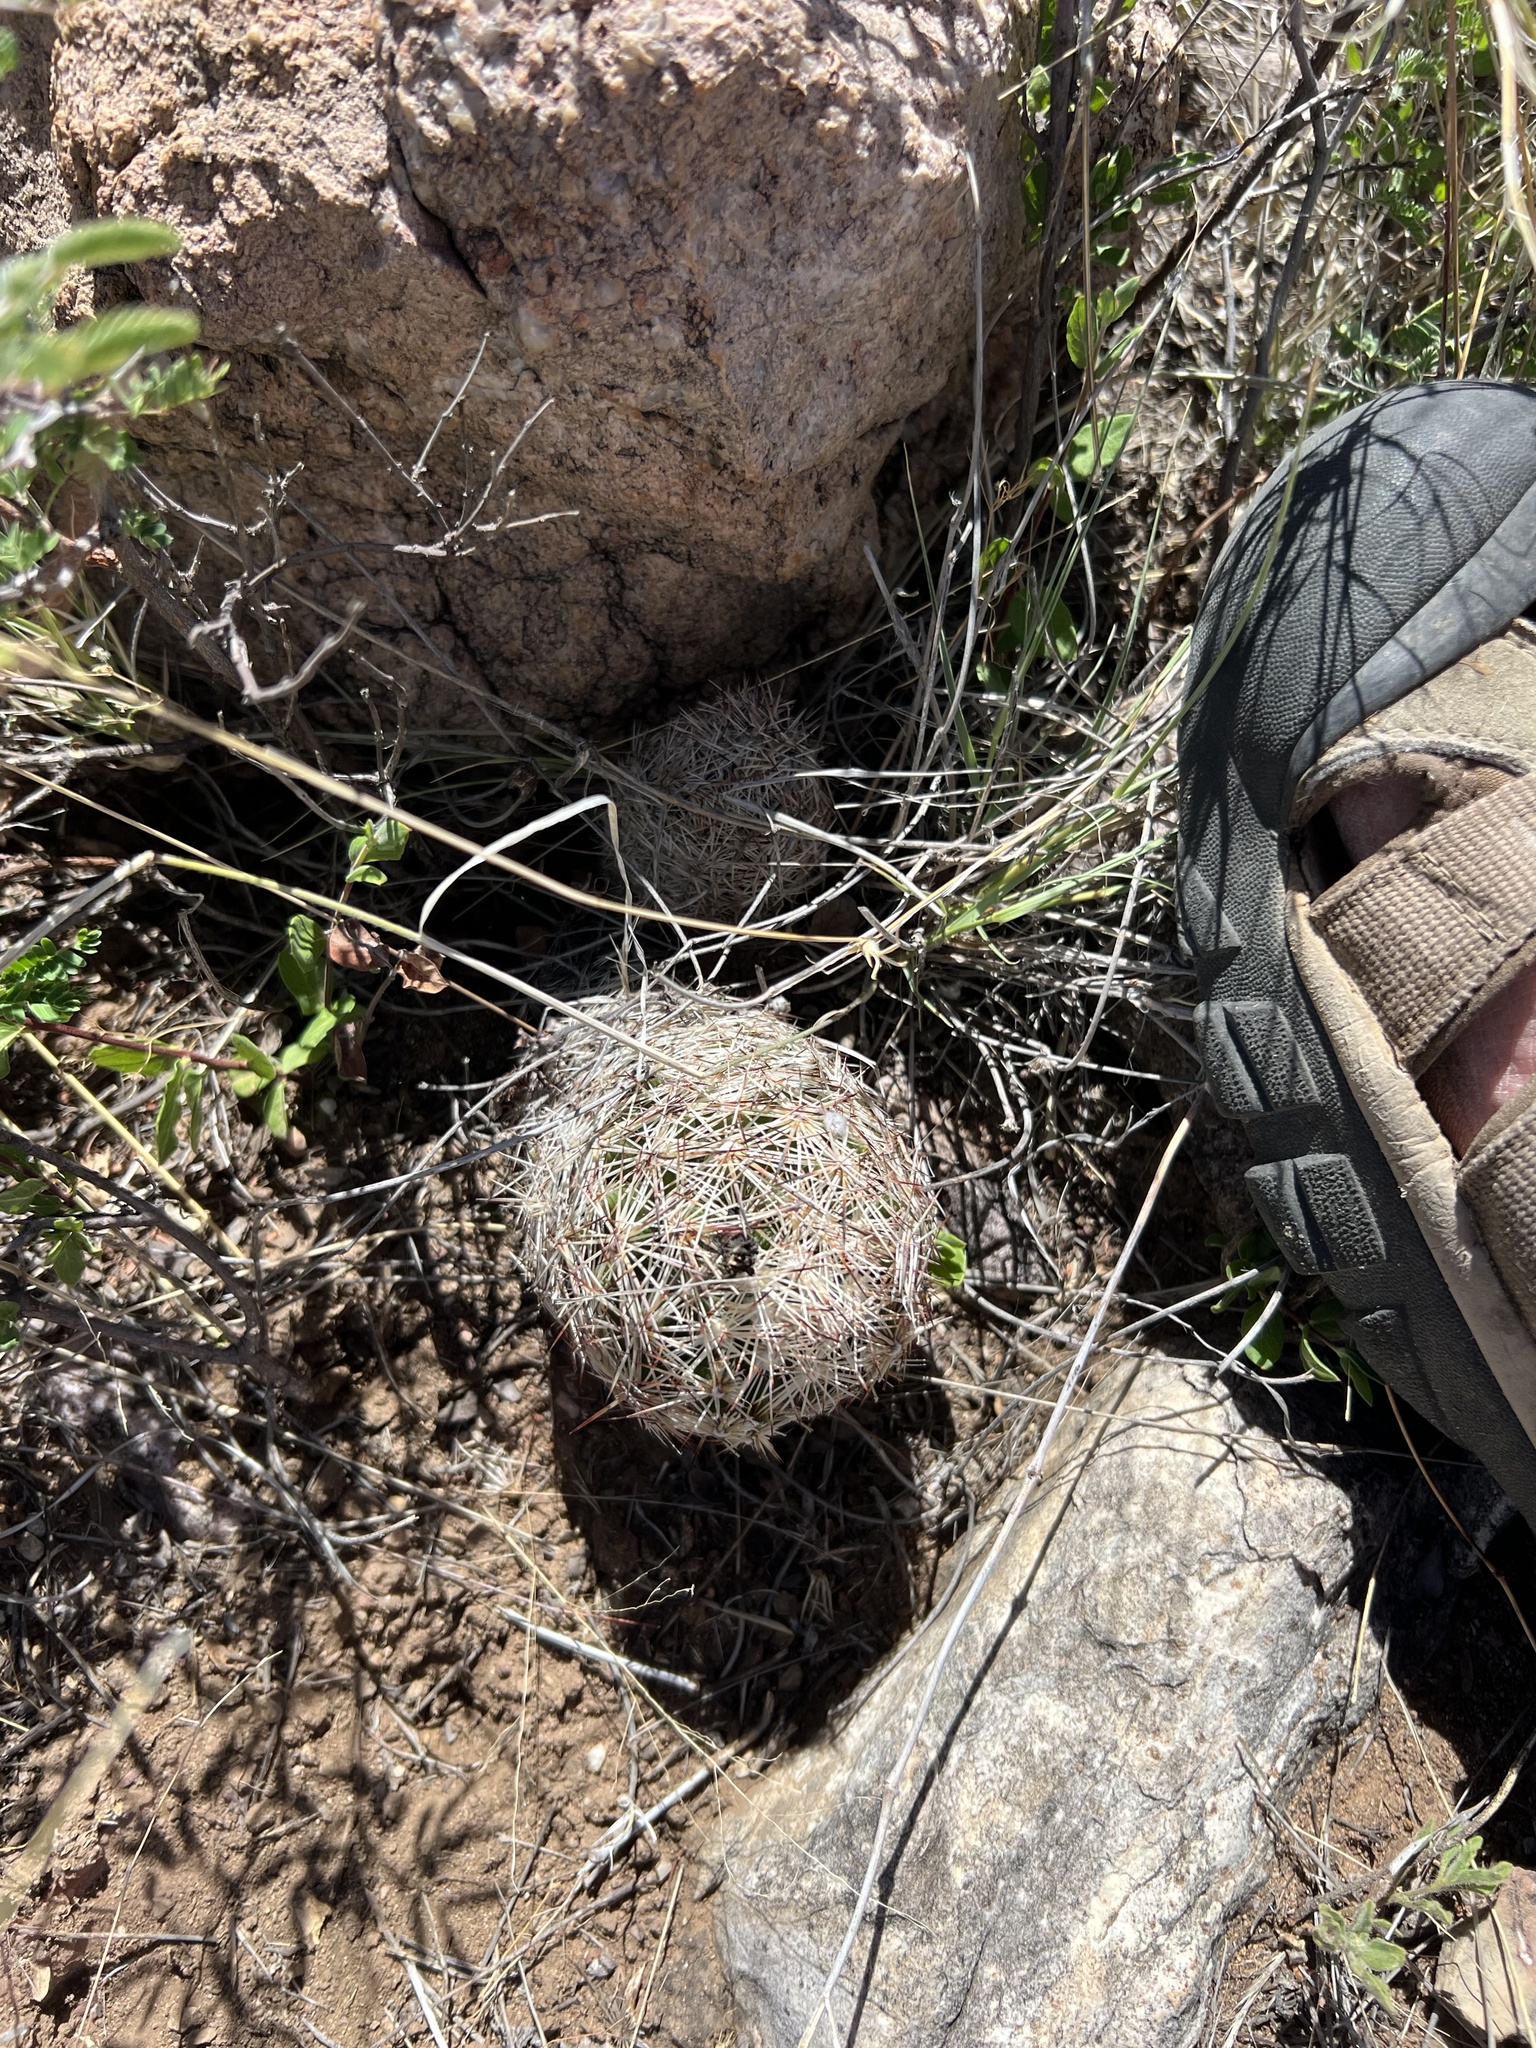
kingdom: Plantae
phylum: Tracheophyta
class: Magnoliopsida
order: Caryophyllales
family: Cactaceae
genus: Sclerocactus
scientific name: Sclerocactus intertextus
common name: White fish-hook cactus
